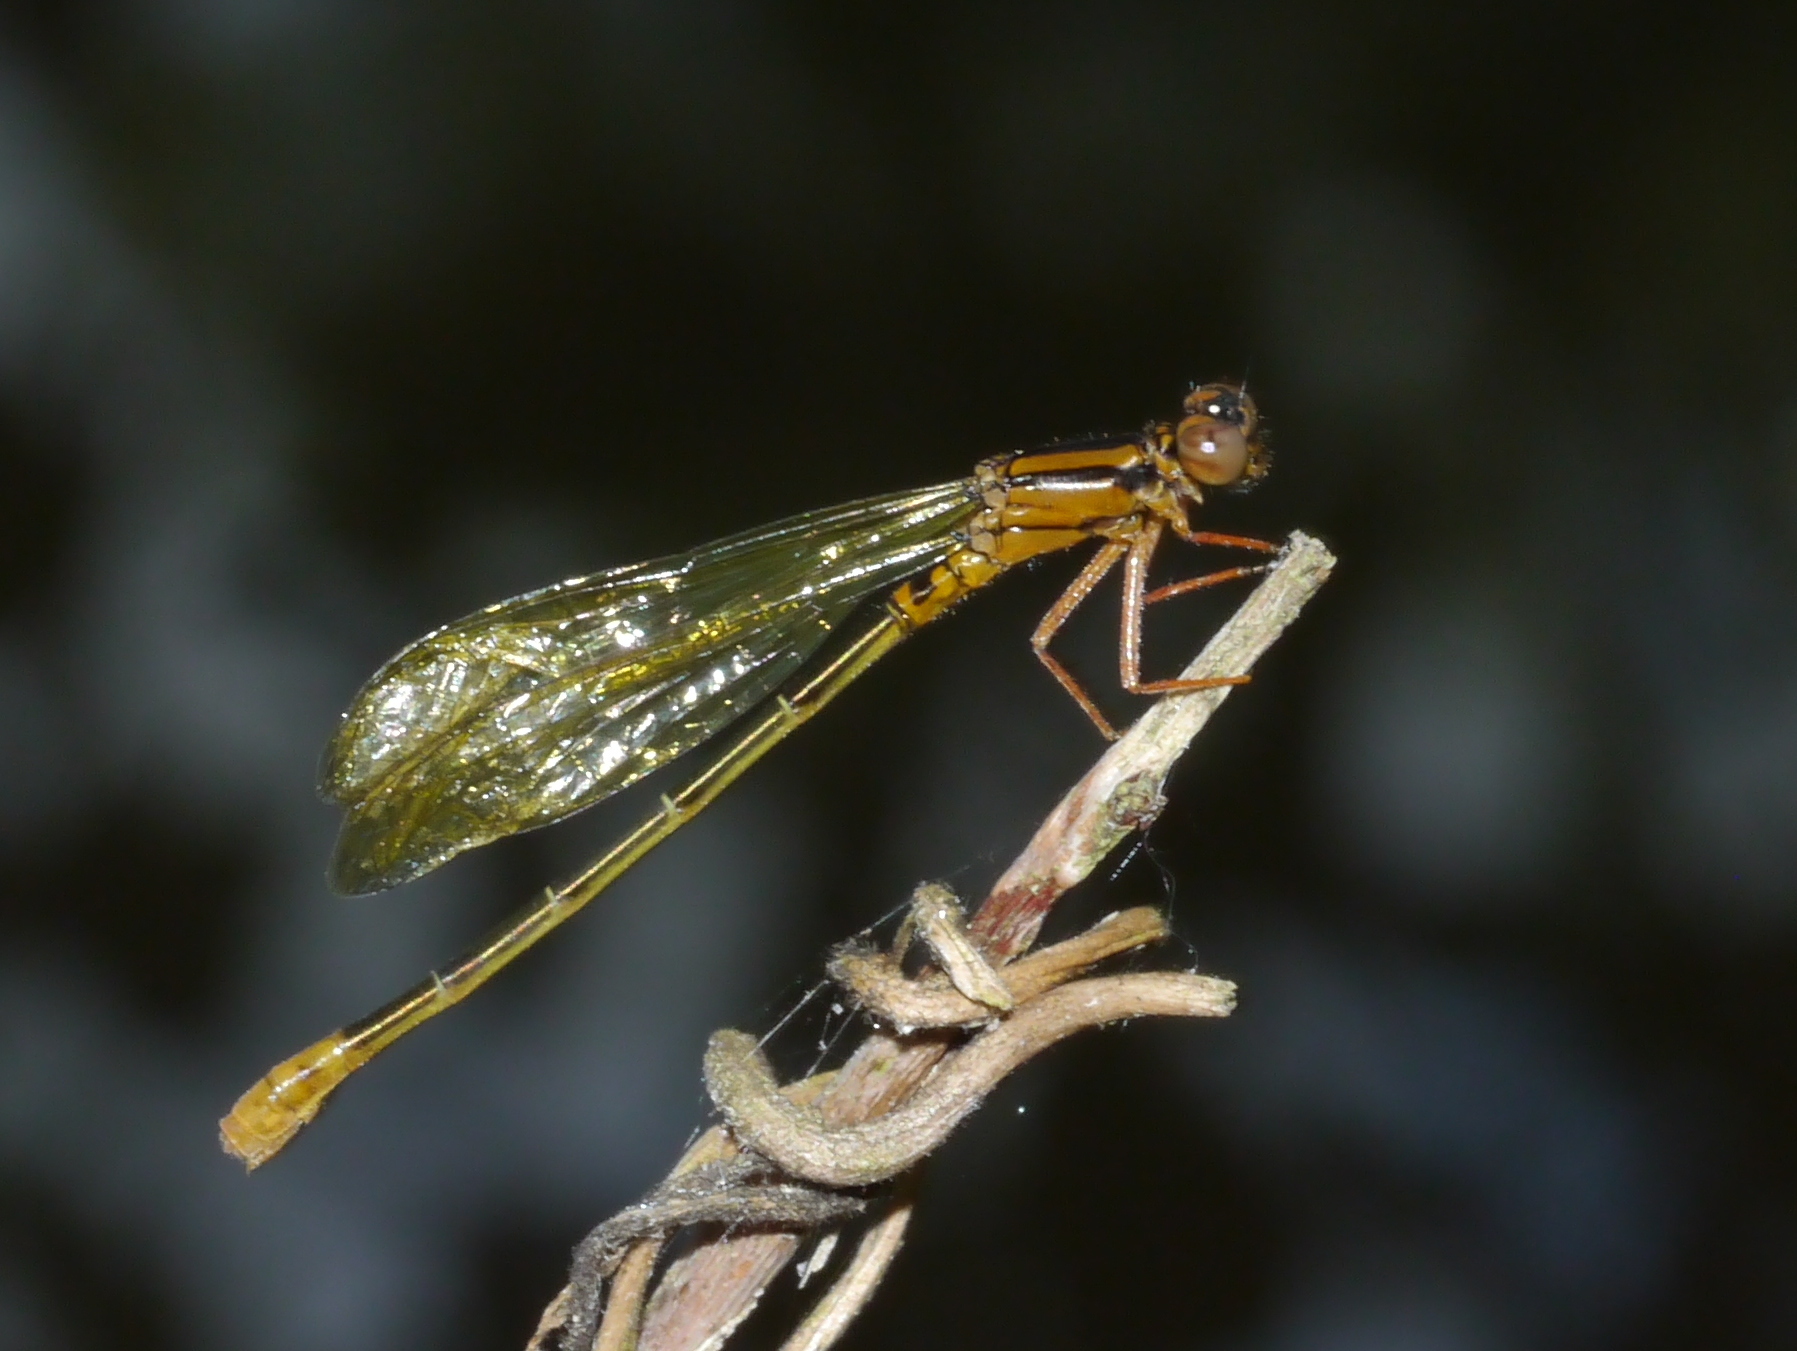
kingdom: Animalia
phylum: Arthropoda
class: Insecta
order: Odonata
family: Coenagrionidae
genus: Ischnura
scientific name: Ischnura kellicotti
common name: Lilypad forktail
